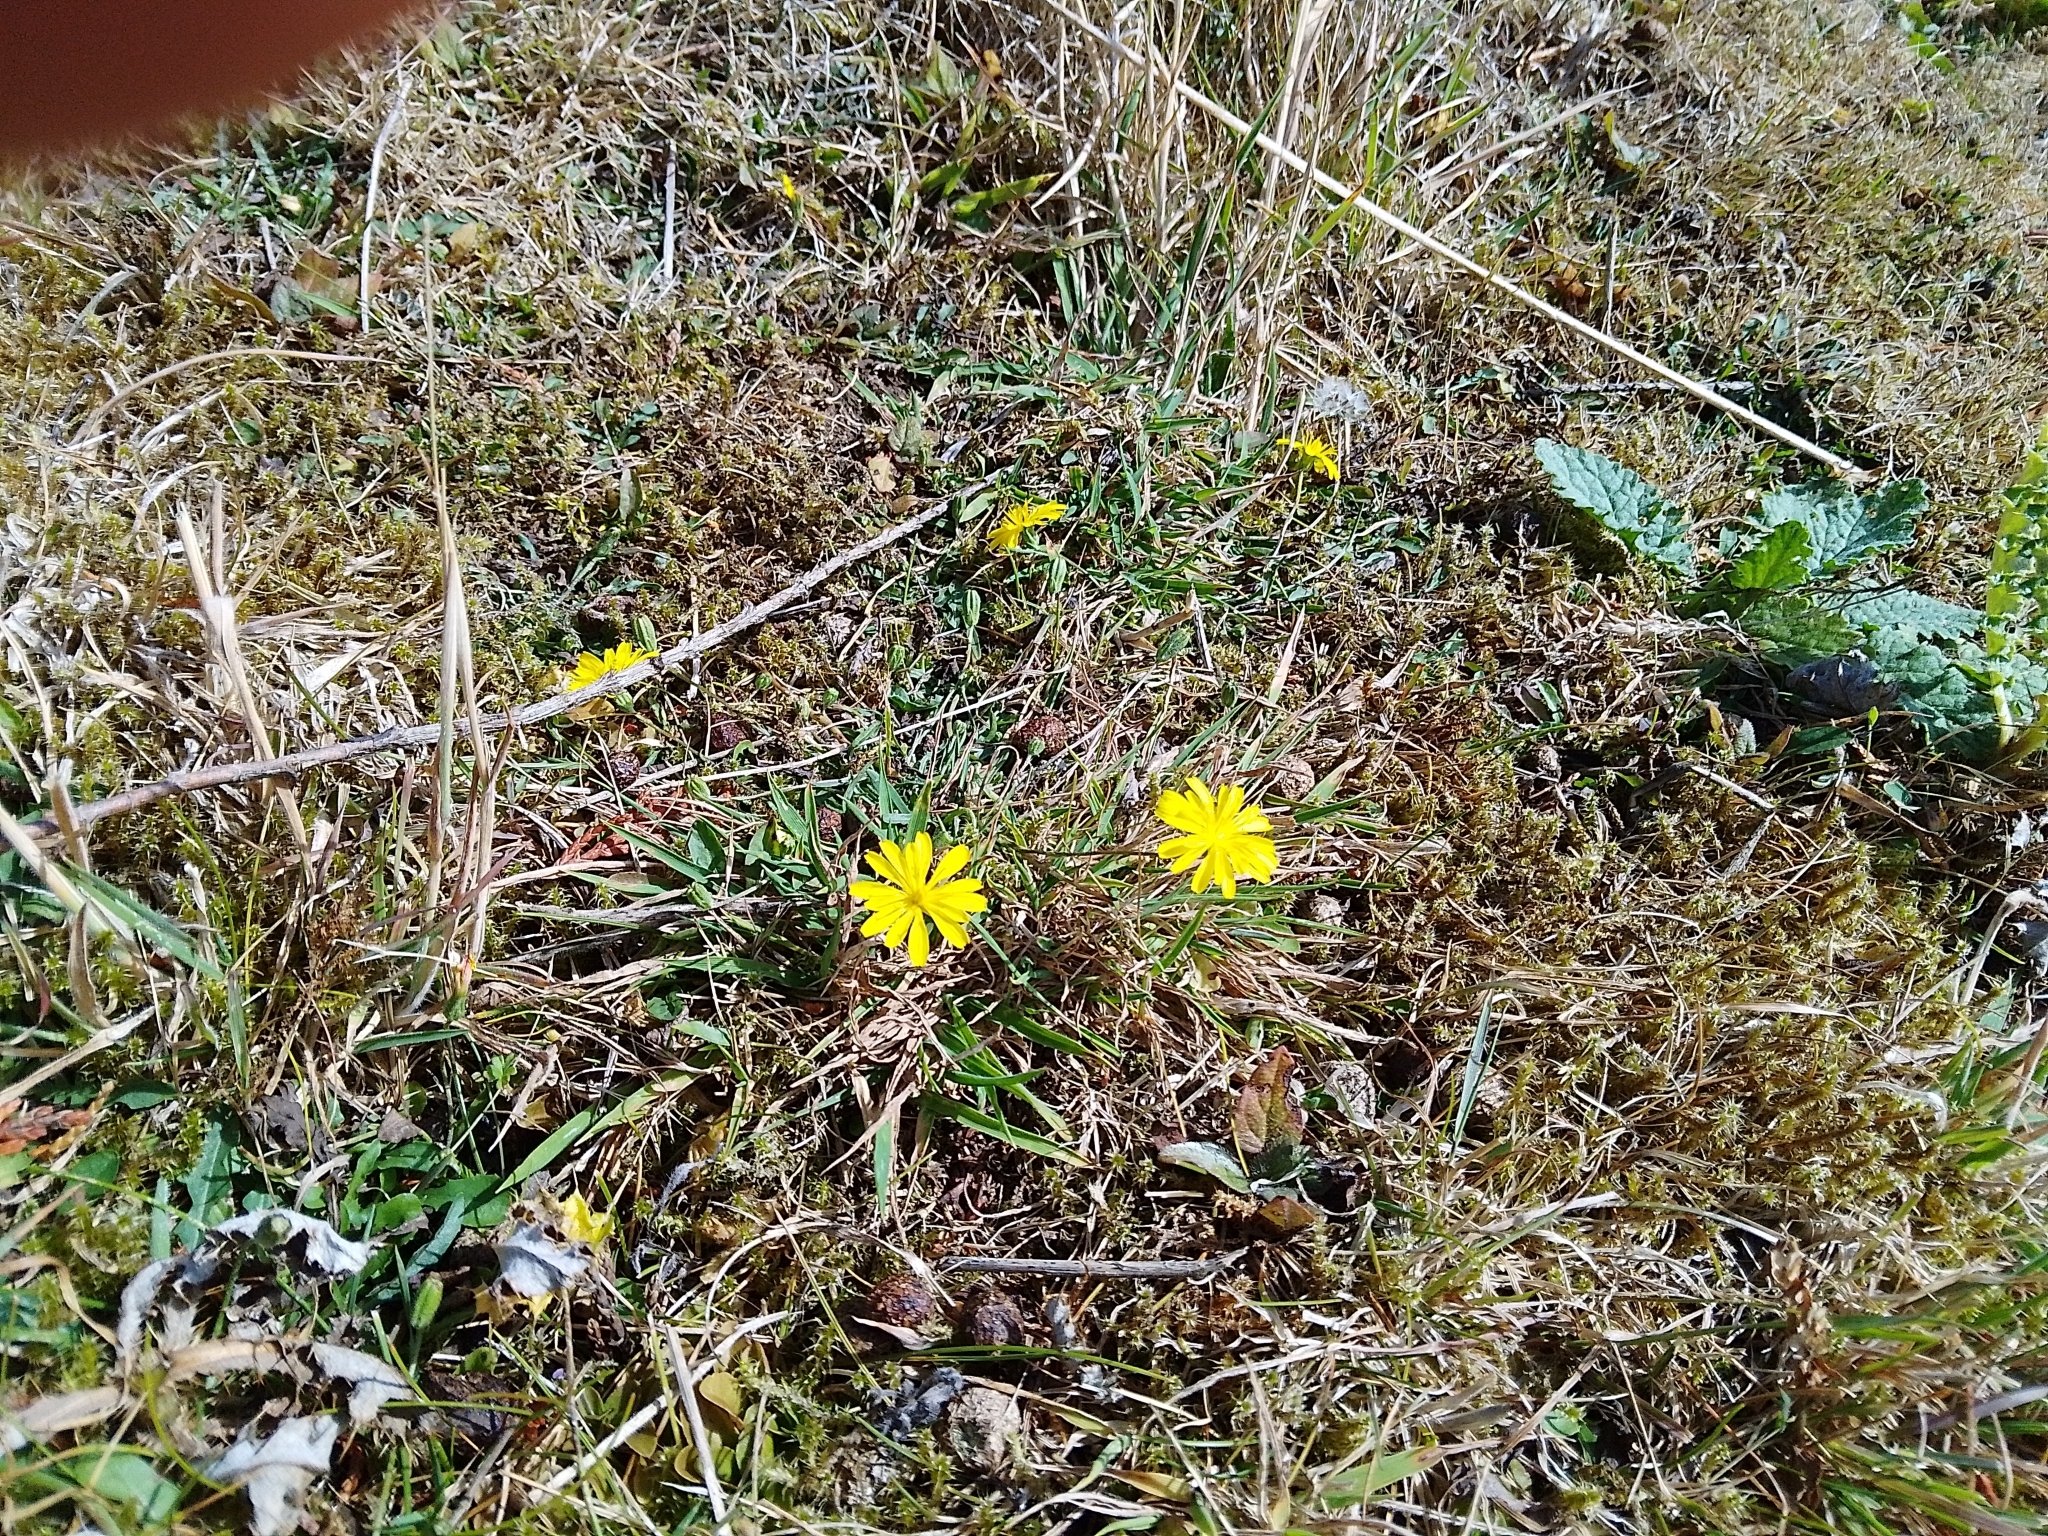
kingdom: Plantae
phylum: Tracheophyta
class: Magnoliopsida
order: Asterales
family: Asteraceae
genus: Crepis
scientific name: Crepis capillaris
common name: Smooth hawksbeard
